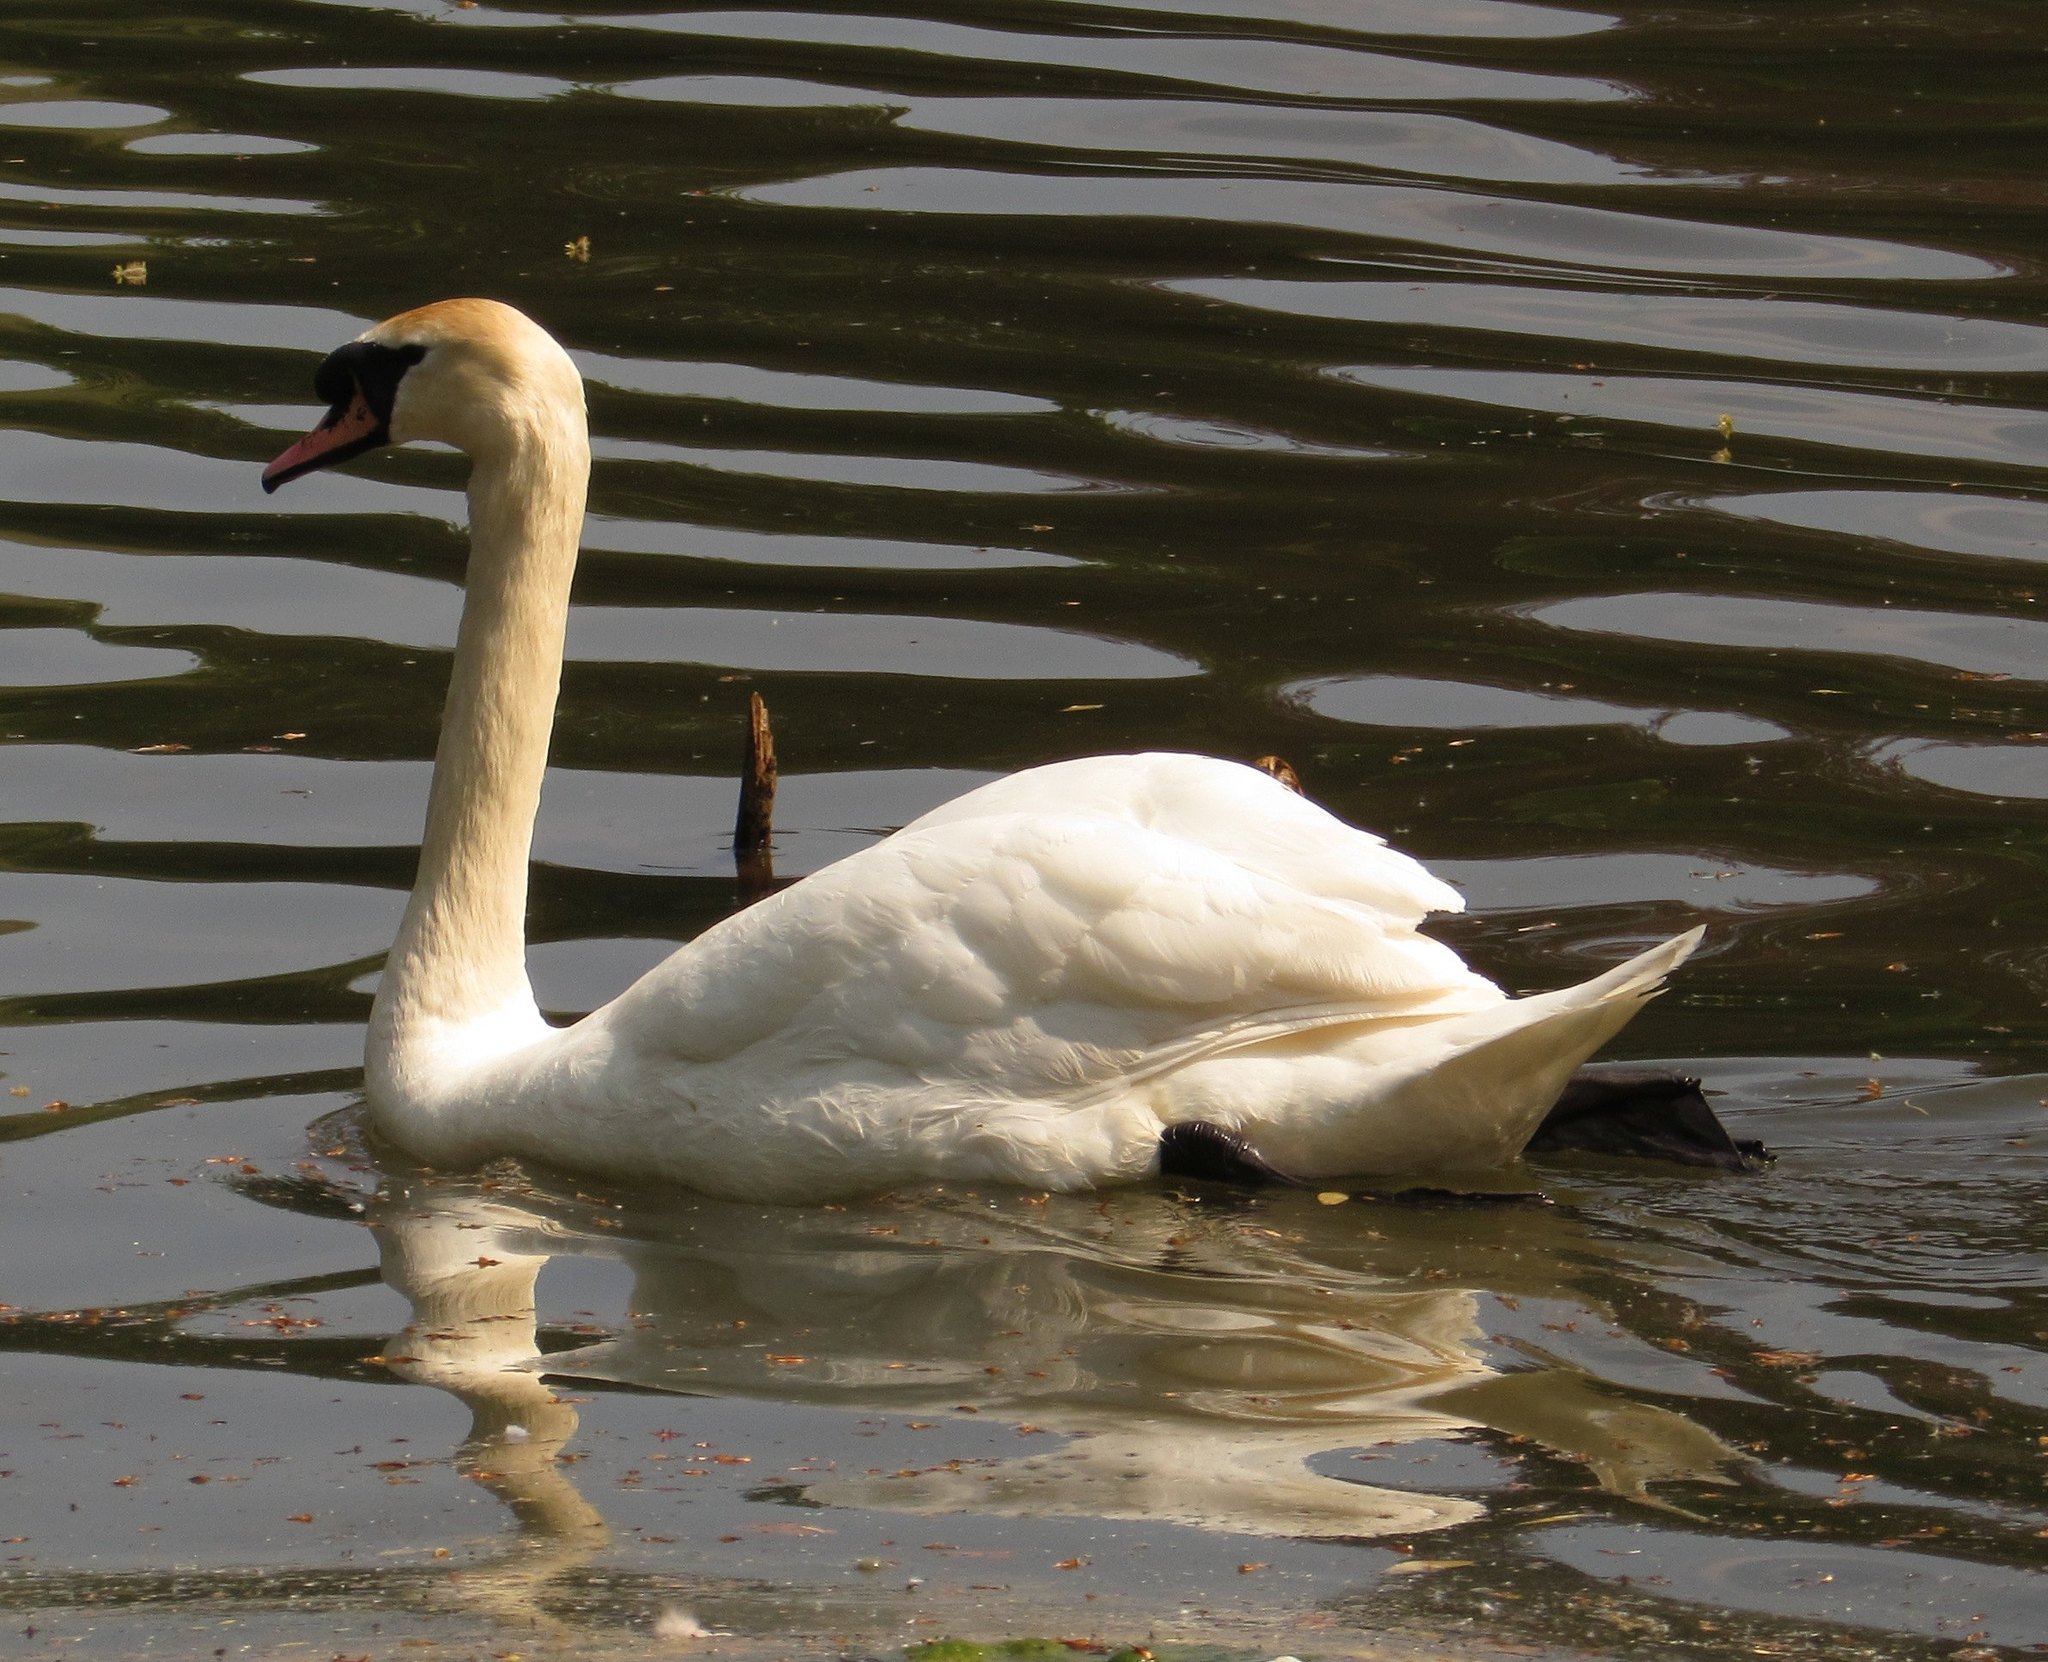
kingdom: Animalia
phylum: Chordata
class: Aves
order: Anseriformes
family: Anatidae
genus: Cygnus
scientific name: Cygnus olor
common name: Mute swan
